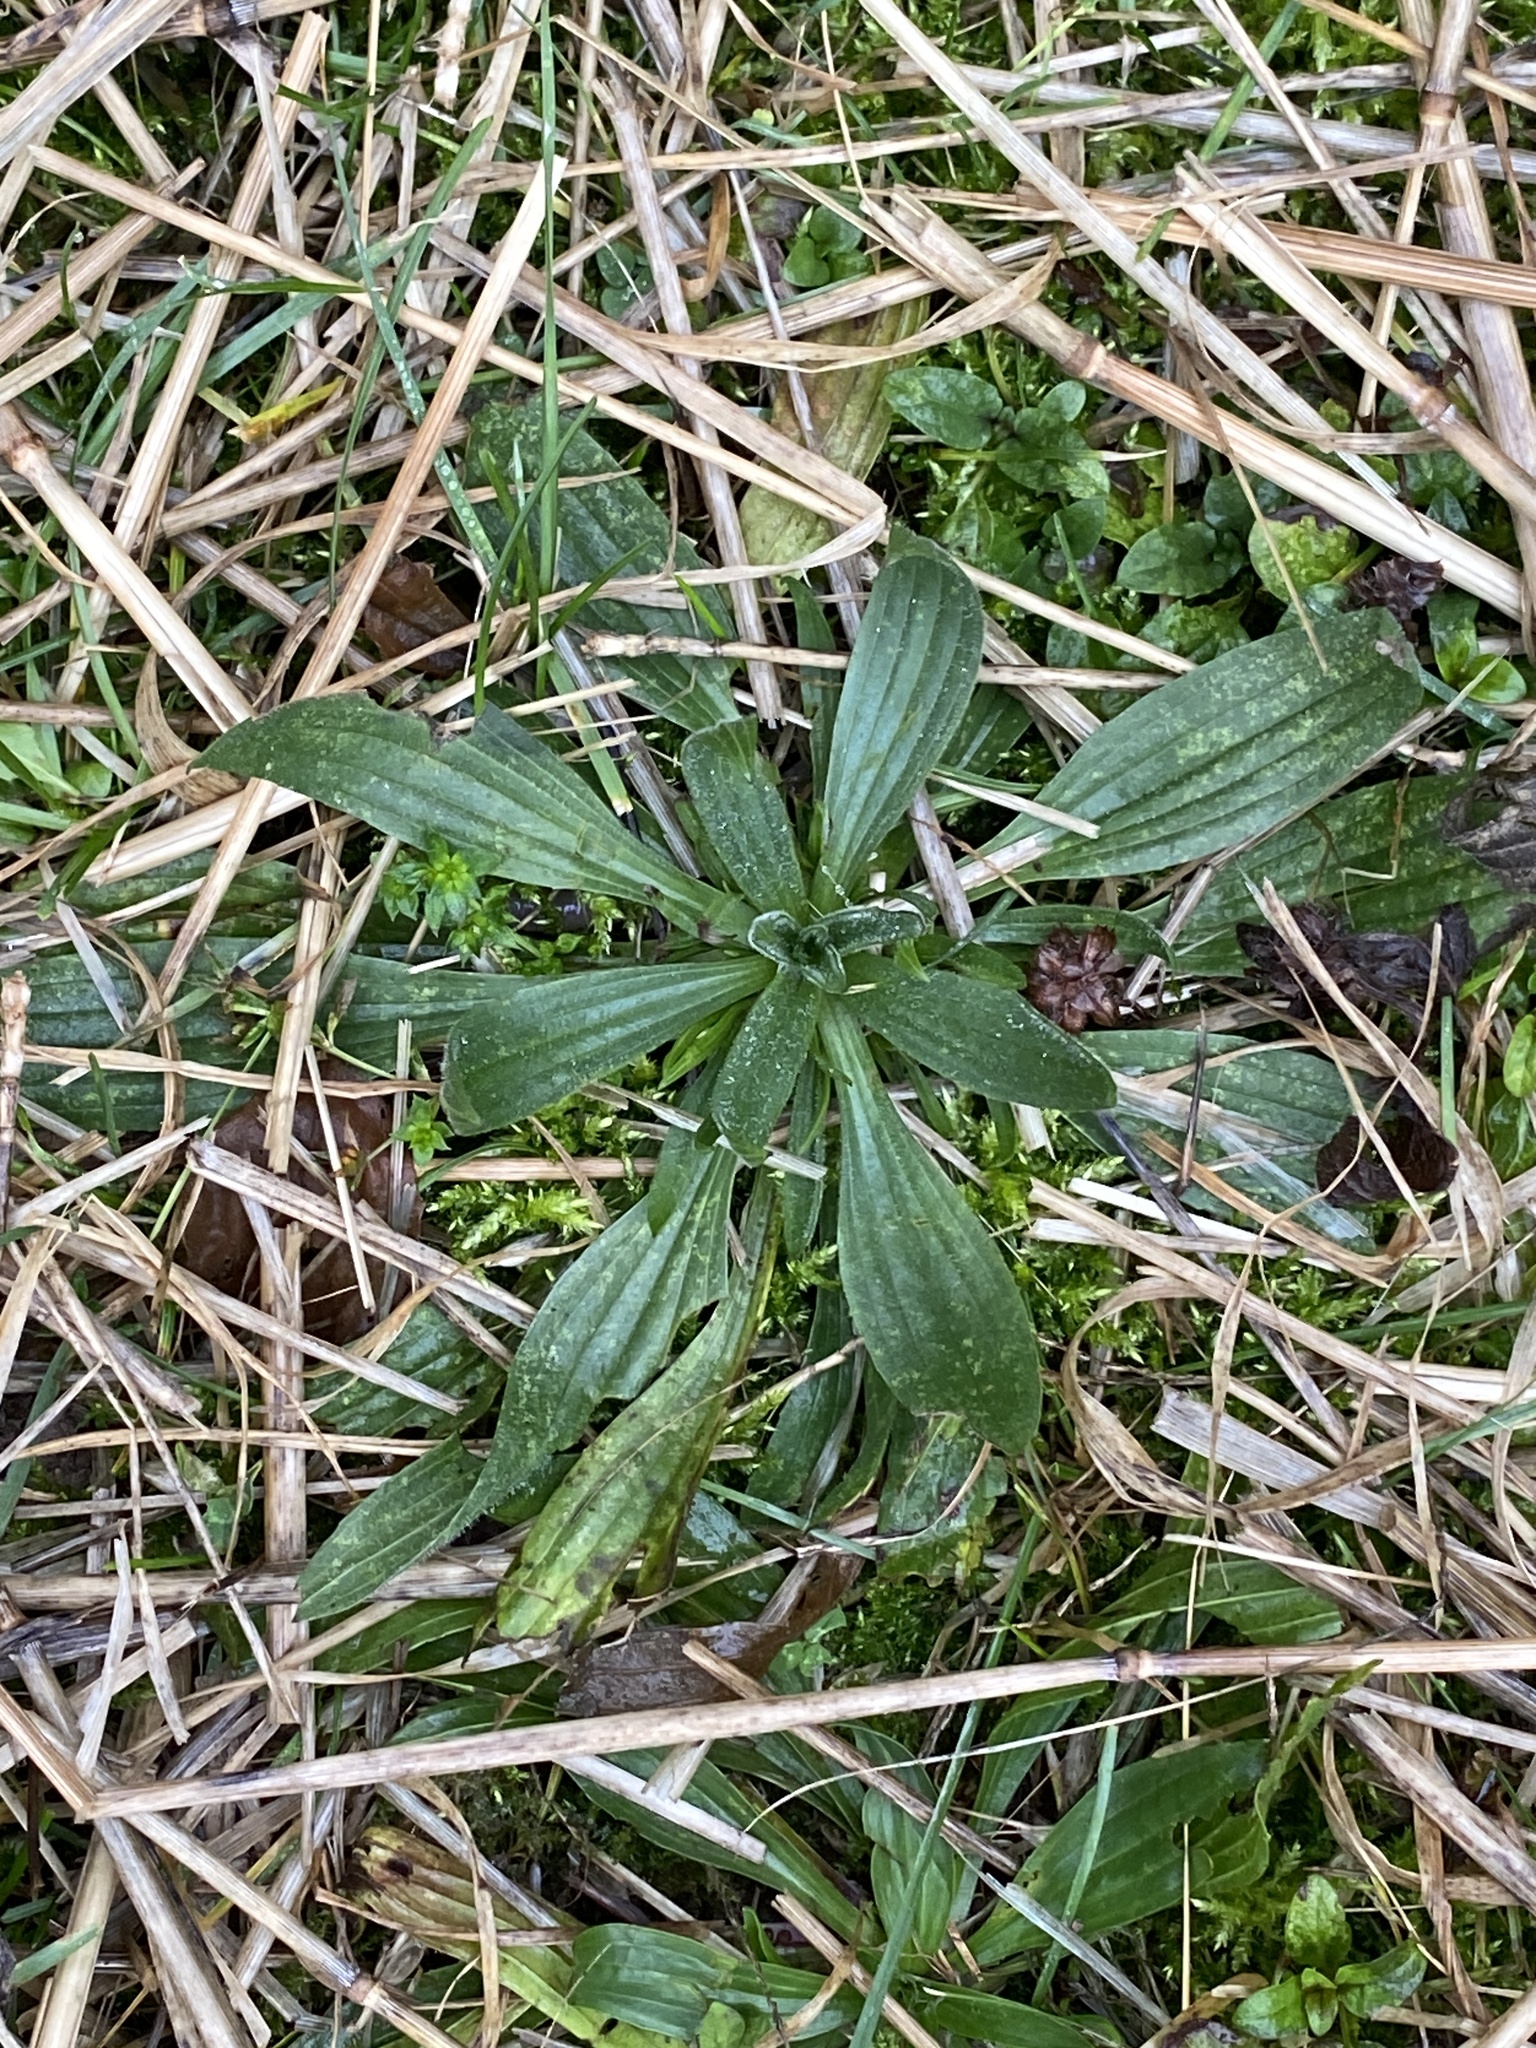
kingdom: Plantae
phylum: Tracheophyta
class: Magnoliopsida
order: Lamiales
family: Plantaginaceae
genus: Plantago
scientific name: Plantago lanceolata
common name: Ribwort plantain
